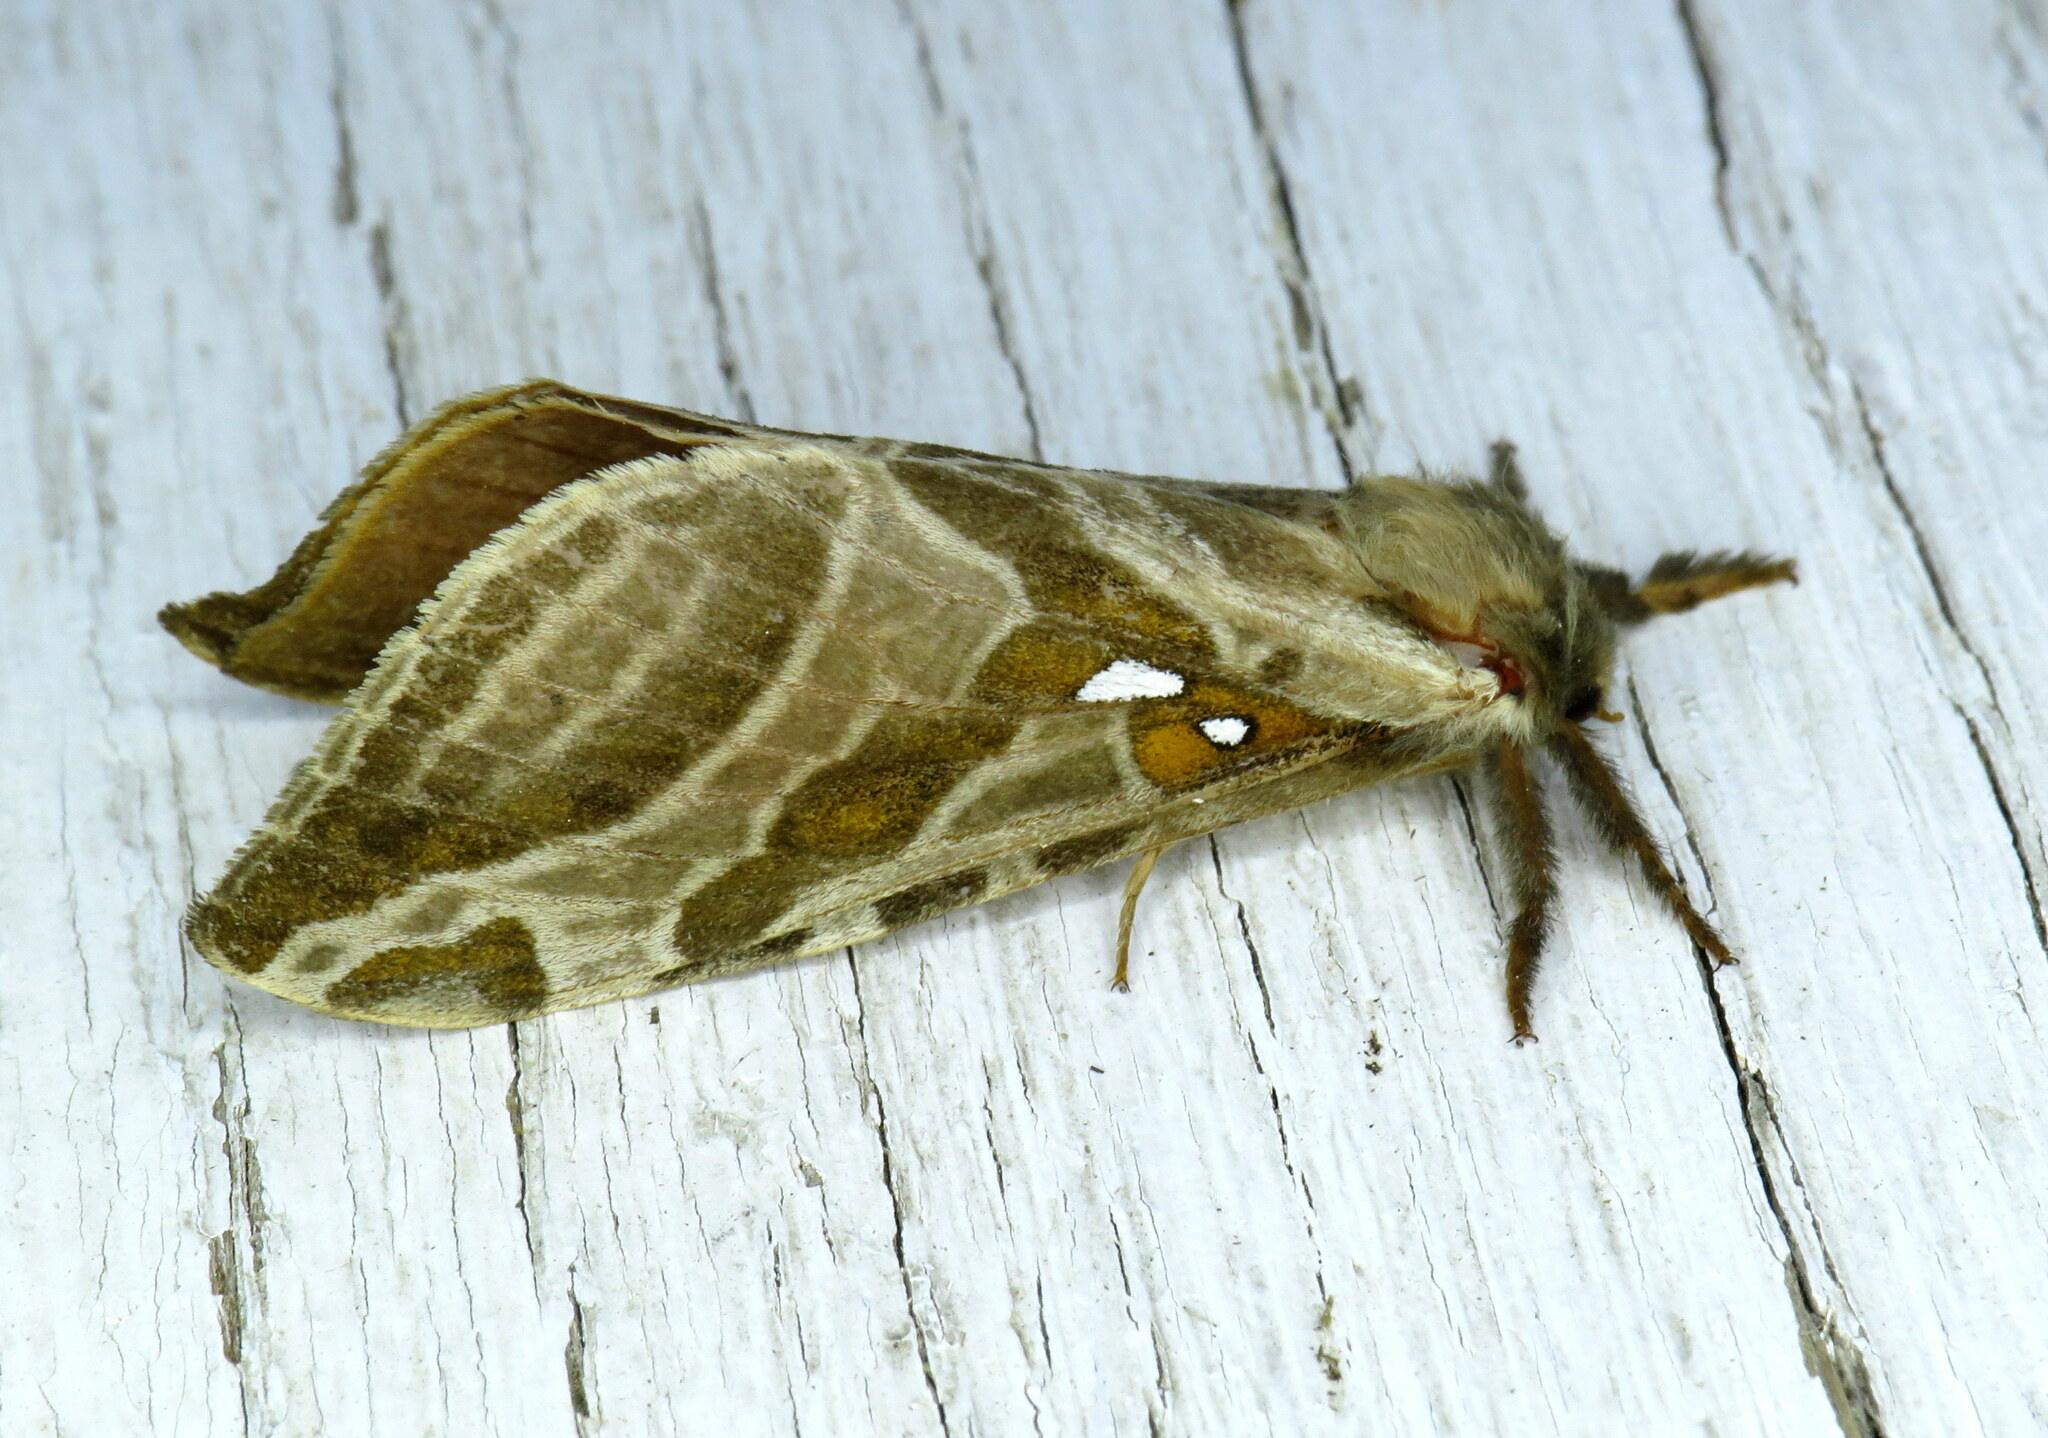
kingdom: Animalia
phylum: Arthropoda
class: Insecta
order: Lepidoptera
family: Hepialidae
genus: Sthenopis
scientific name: Sthenopis argenteomaculatus
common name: Silver-spotted ghost moth
